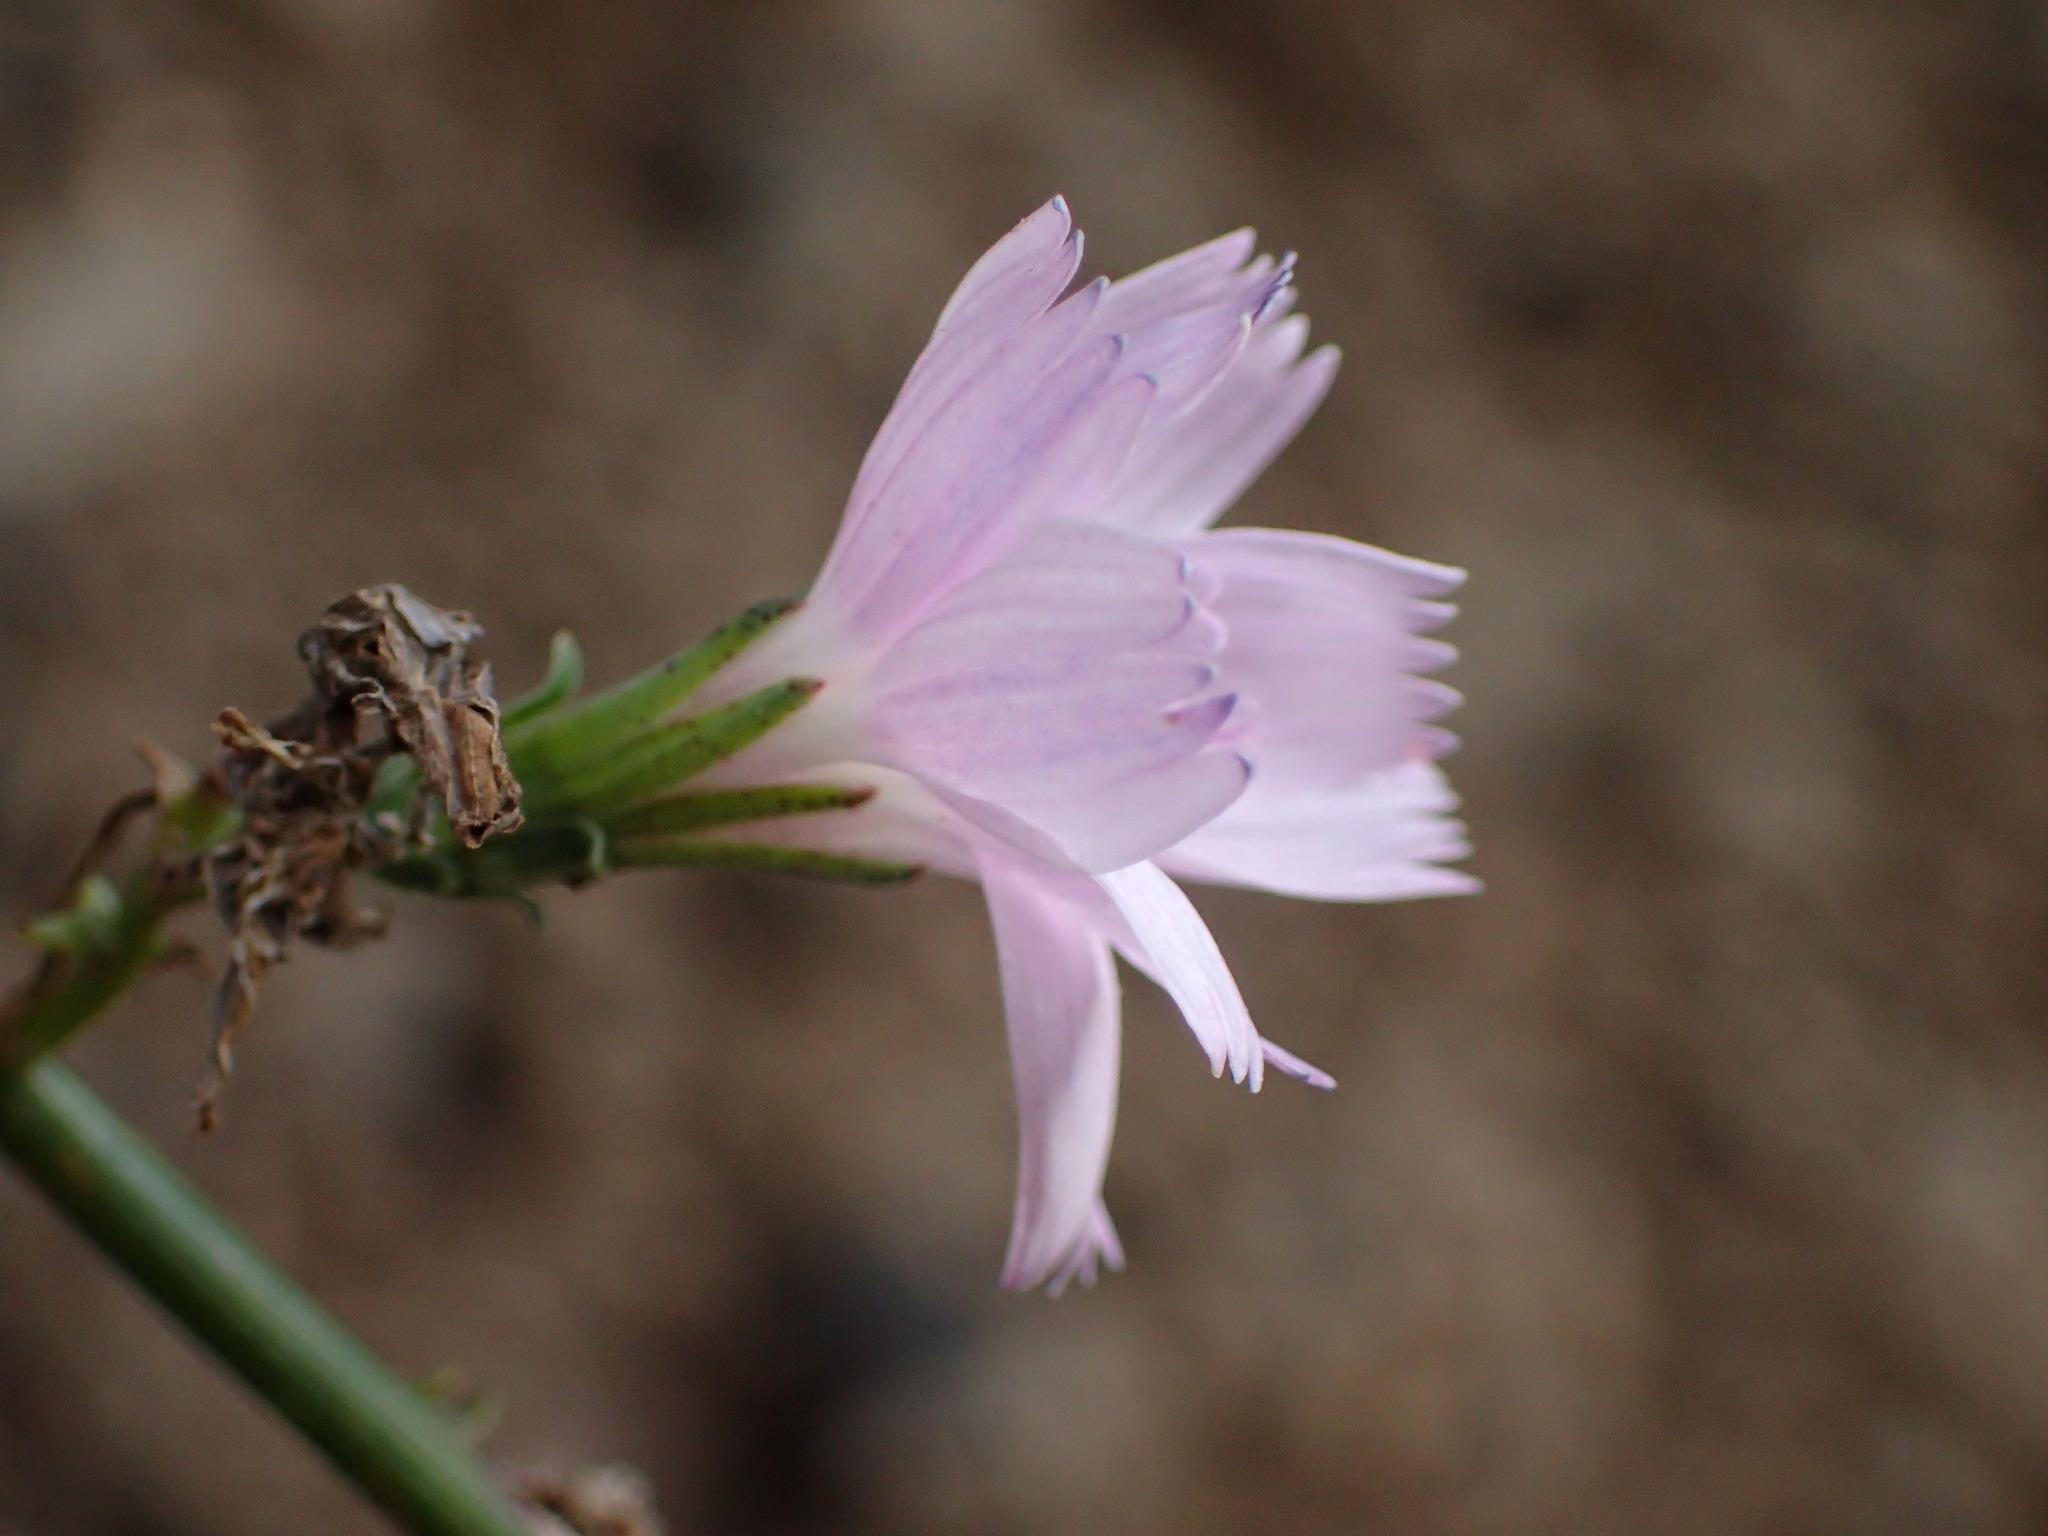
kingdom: Plantae
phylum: Tracheophyta
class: Magnoliopsida
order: Asterales
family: Asteraceae
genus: Stephanomeria
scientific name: Stephanomeria virgata
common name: Virgate wirelettuce
